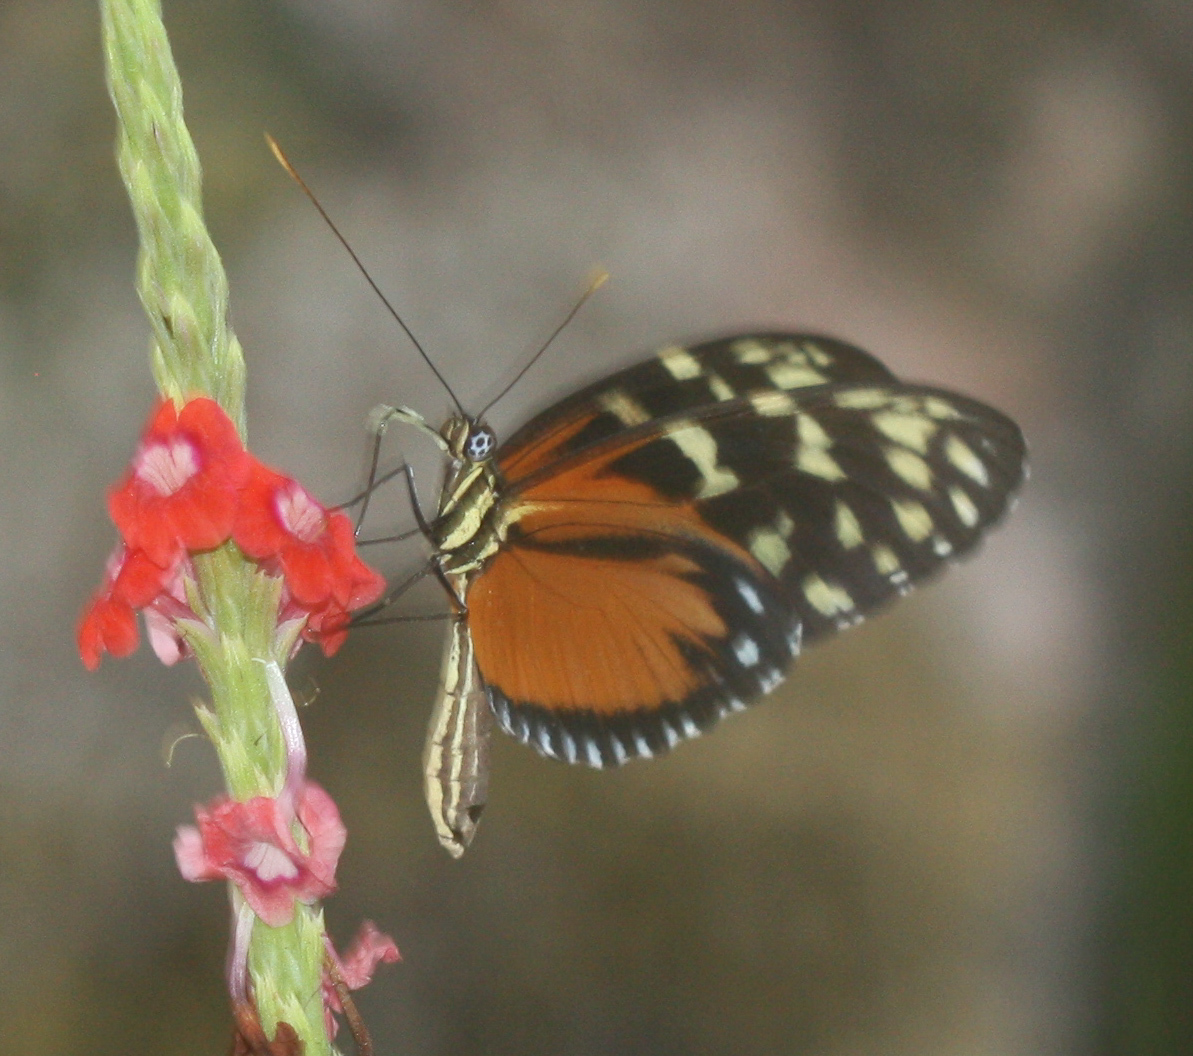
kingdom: Animalia
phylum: Arthropoda
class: Insecta
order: Lepidoptera
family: Nymphalidae
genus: Heliconius
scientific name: Heliconius hecale
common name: Tiger longwing
